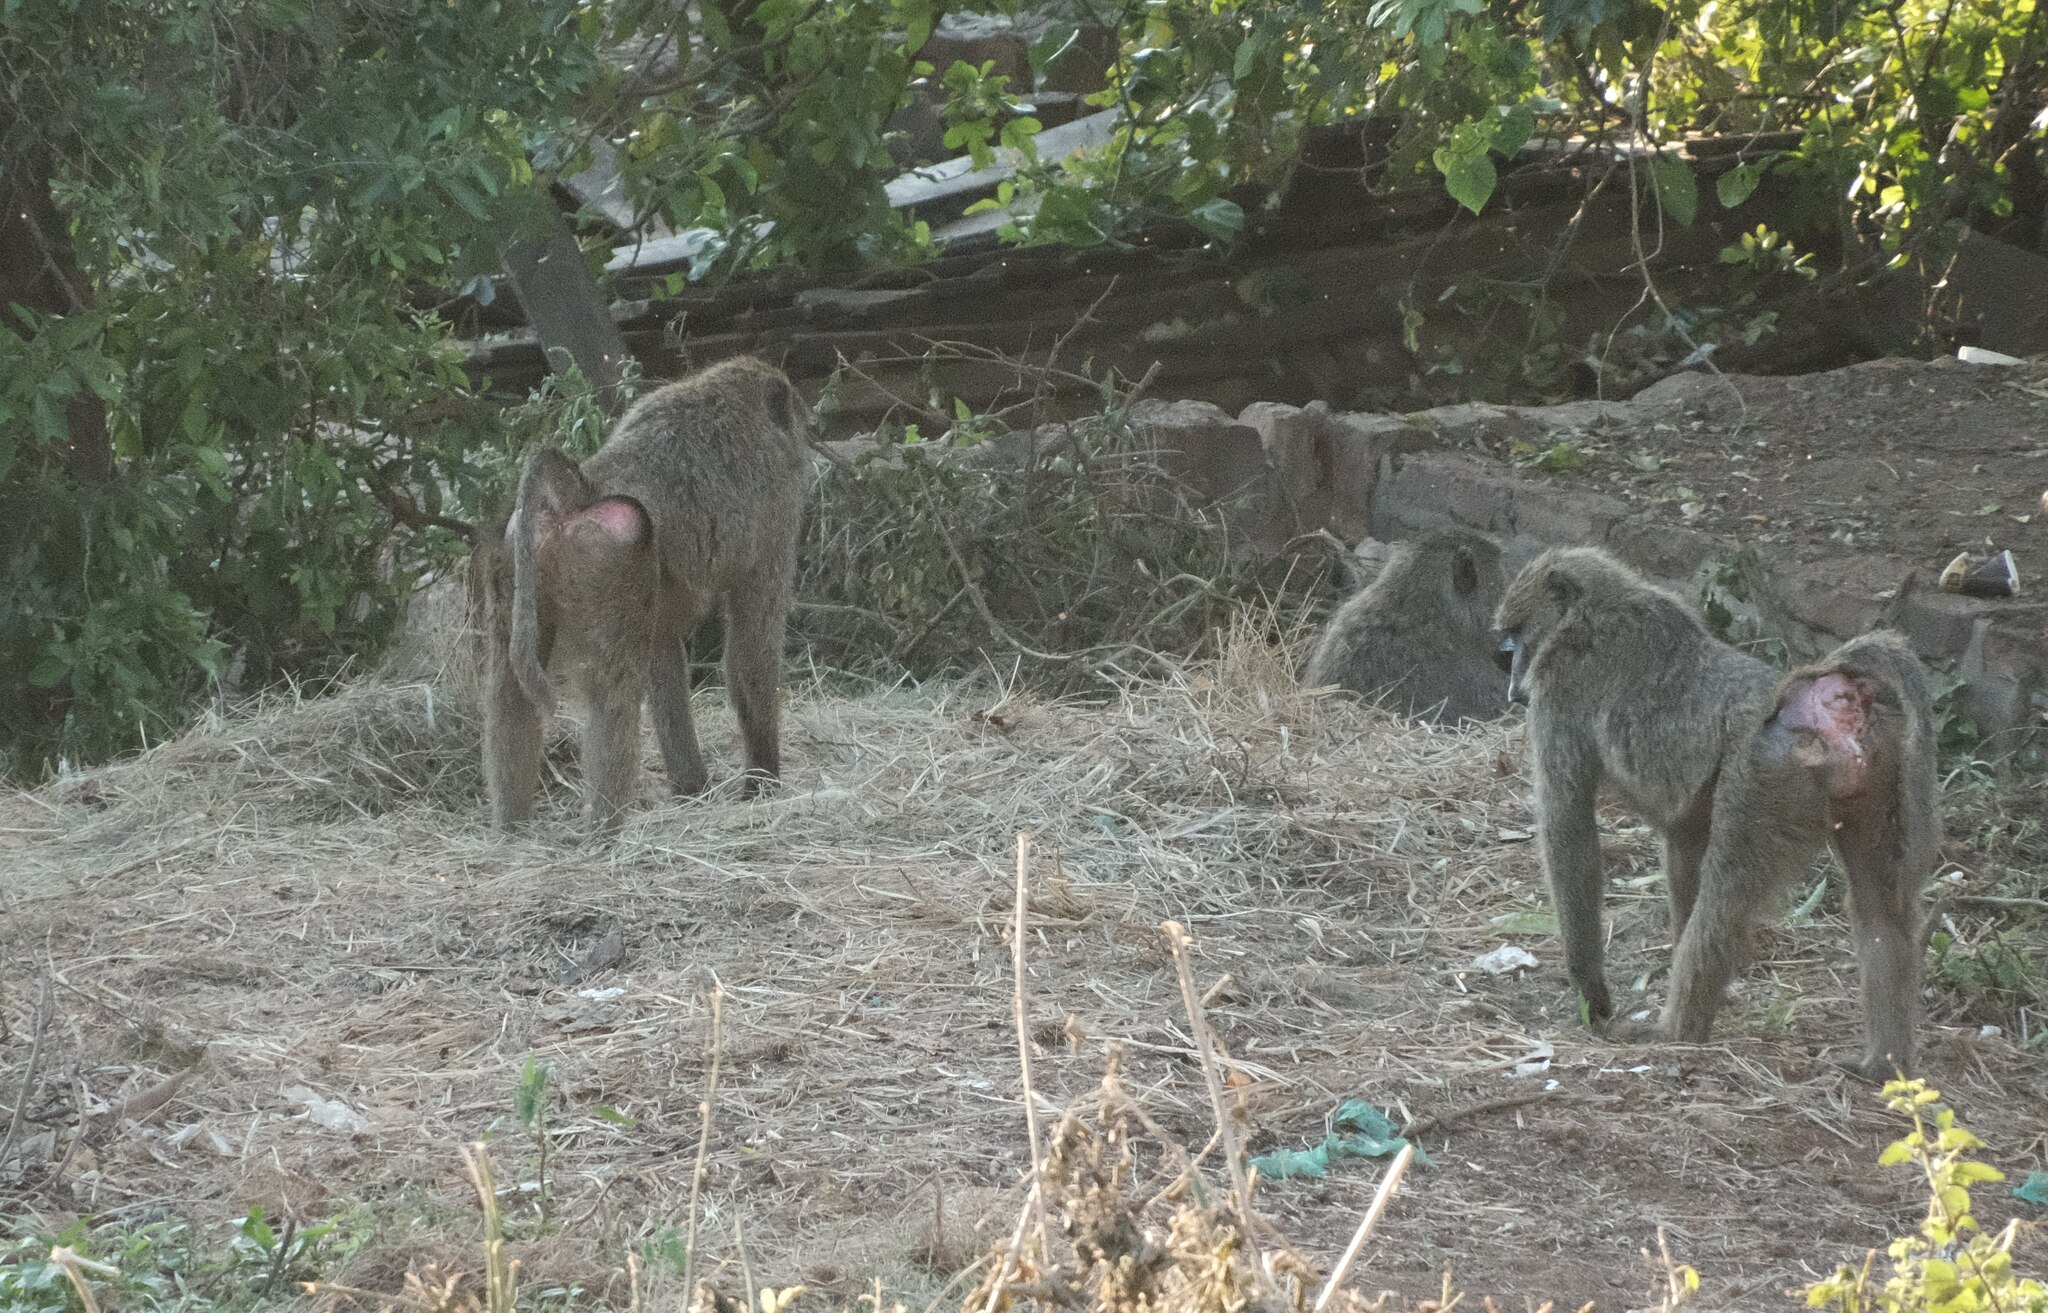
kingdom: Animalia
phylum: Chordata
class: Mammalia
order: Primates
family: Cercopithecidae
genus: Papio
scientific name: Papio anubis
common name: Olive baboon
